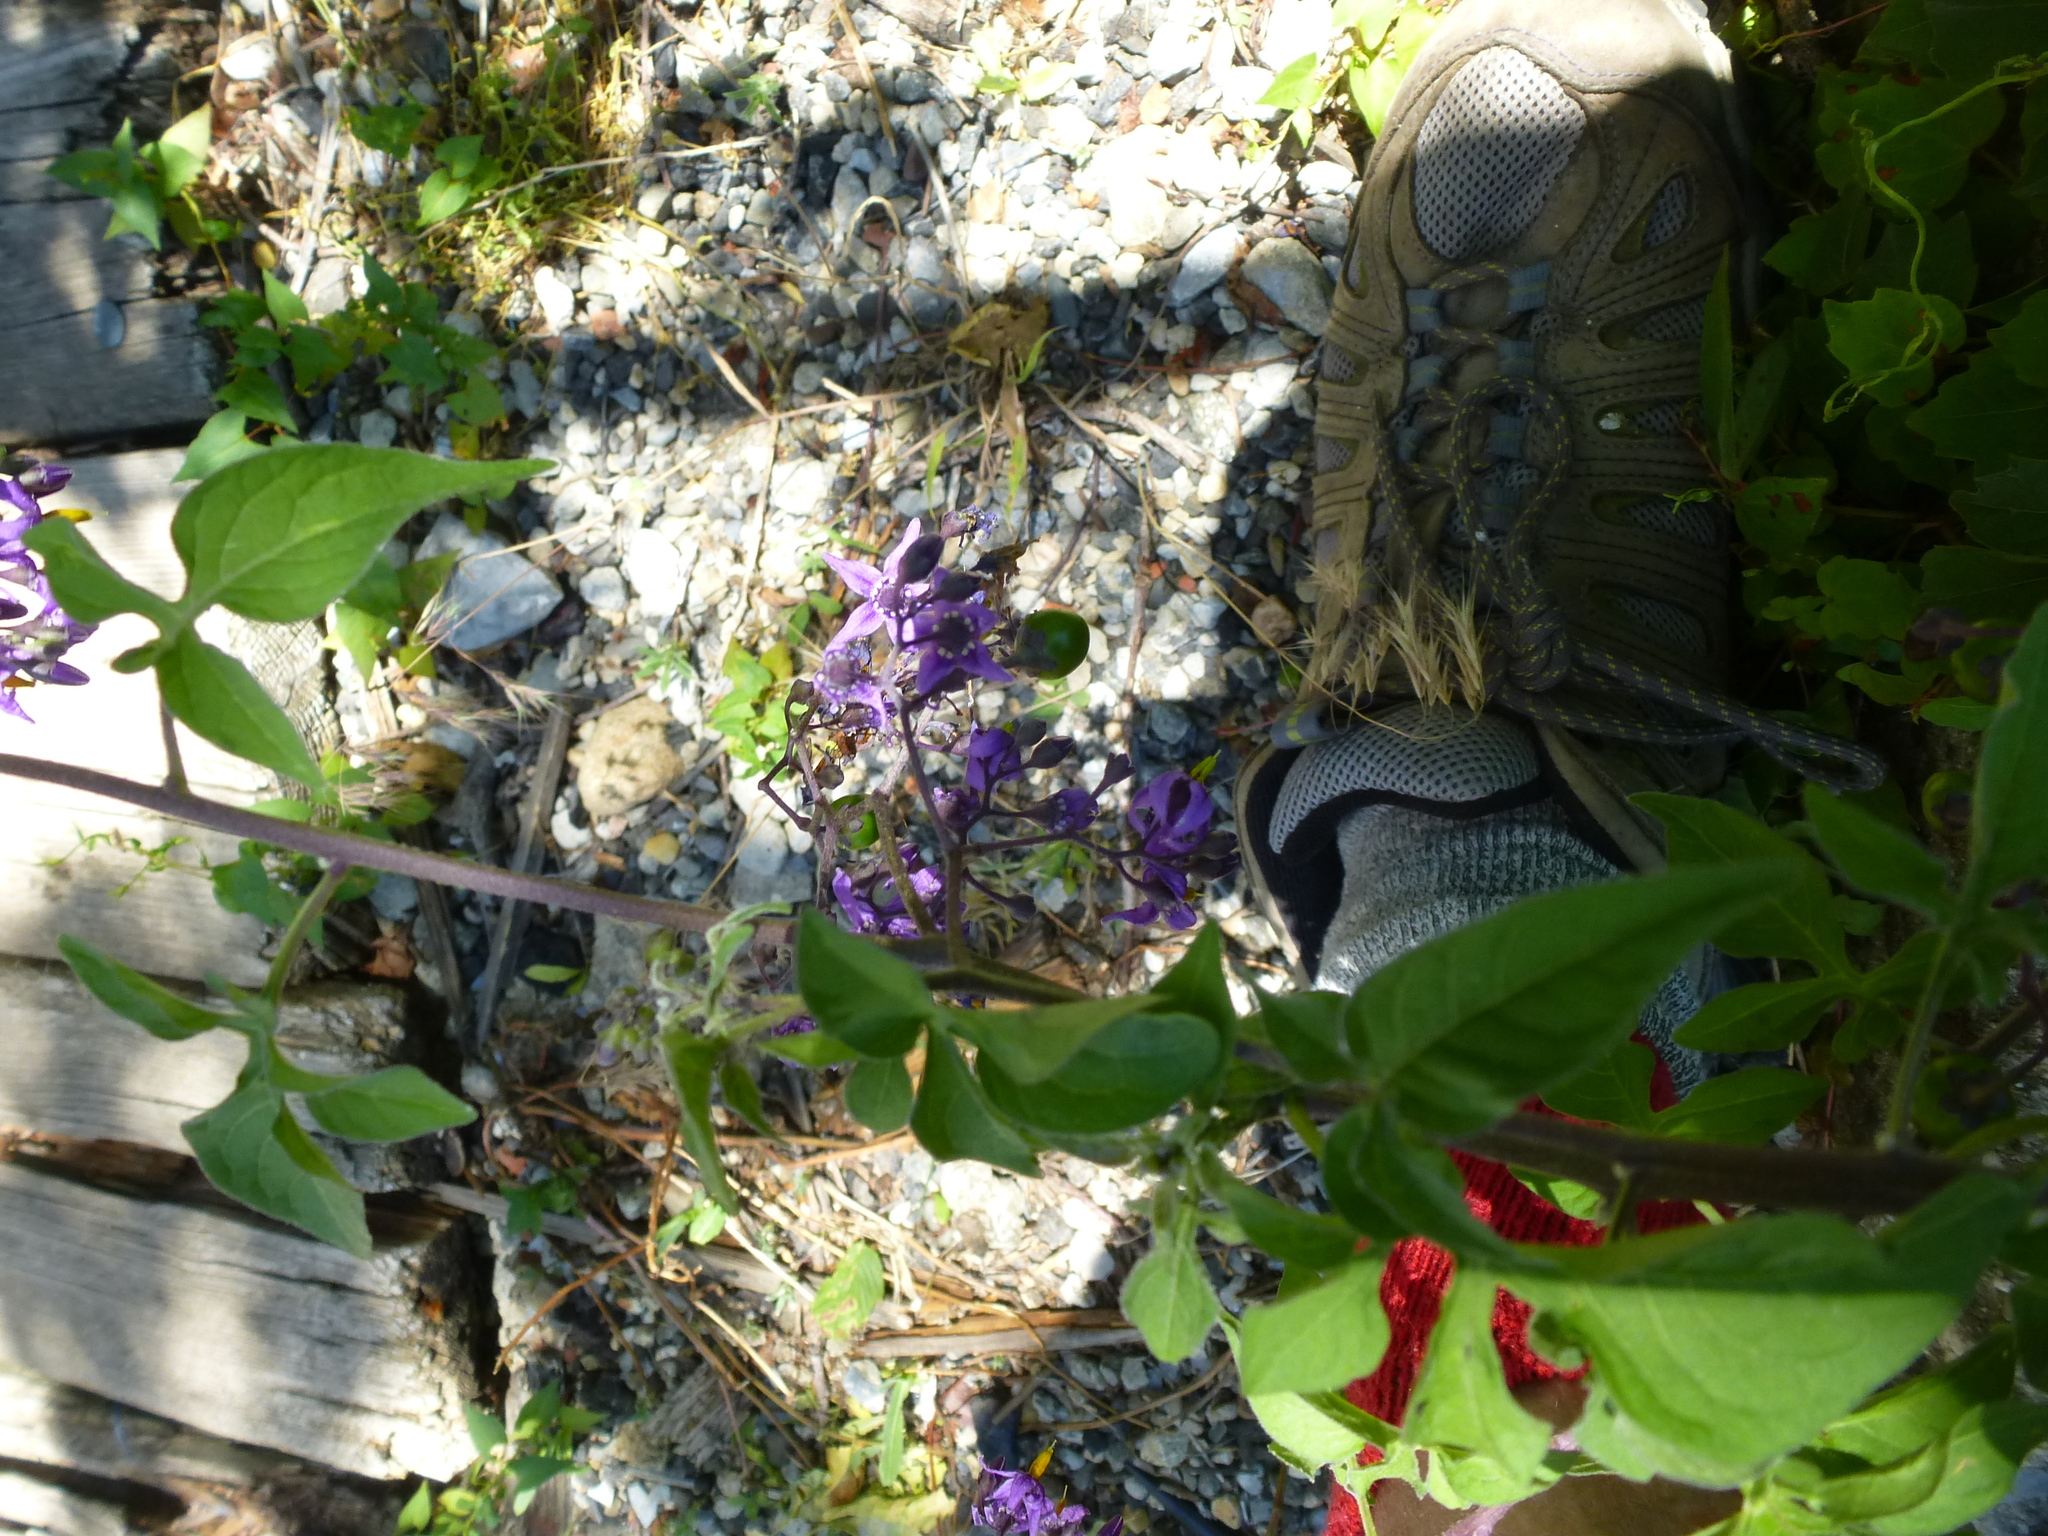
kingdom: Plantae
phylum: Tracheophyta
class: Magnoliopsida
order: Solanales
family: Solanaceae
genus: Solanum
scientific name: Solanum dulcamara
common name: Climbing nightshade
